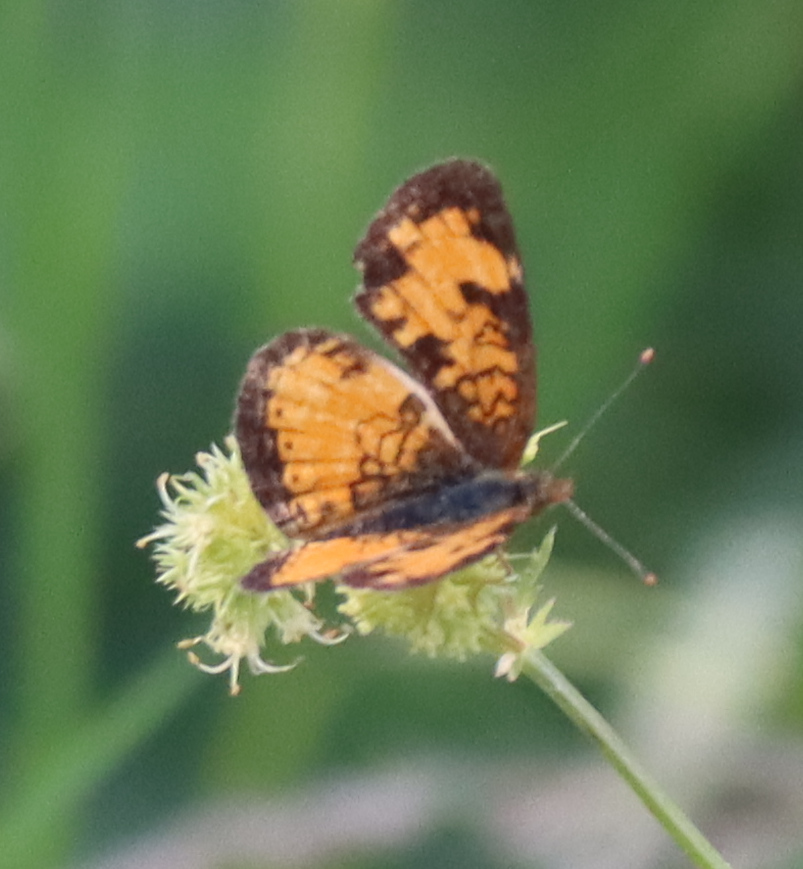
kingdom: Animalia
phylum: Arthropoda
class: Insecta
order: Lepidoptera
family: Nymphalidae
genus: Phyciodes
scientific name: Phyciodes tharos
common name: Pearl crescent
